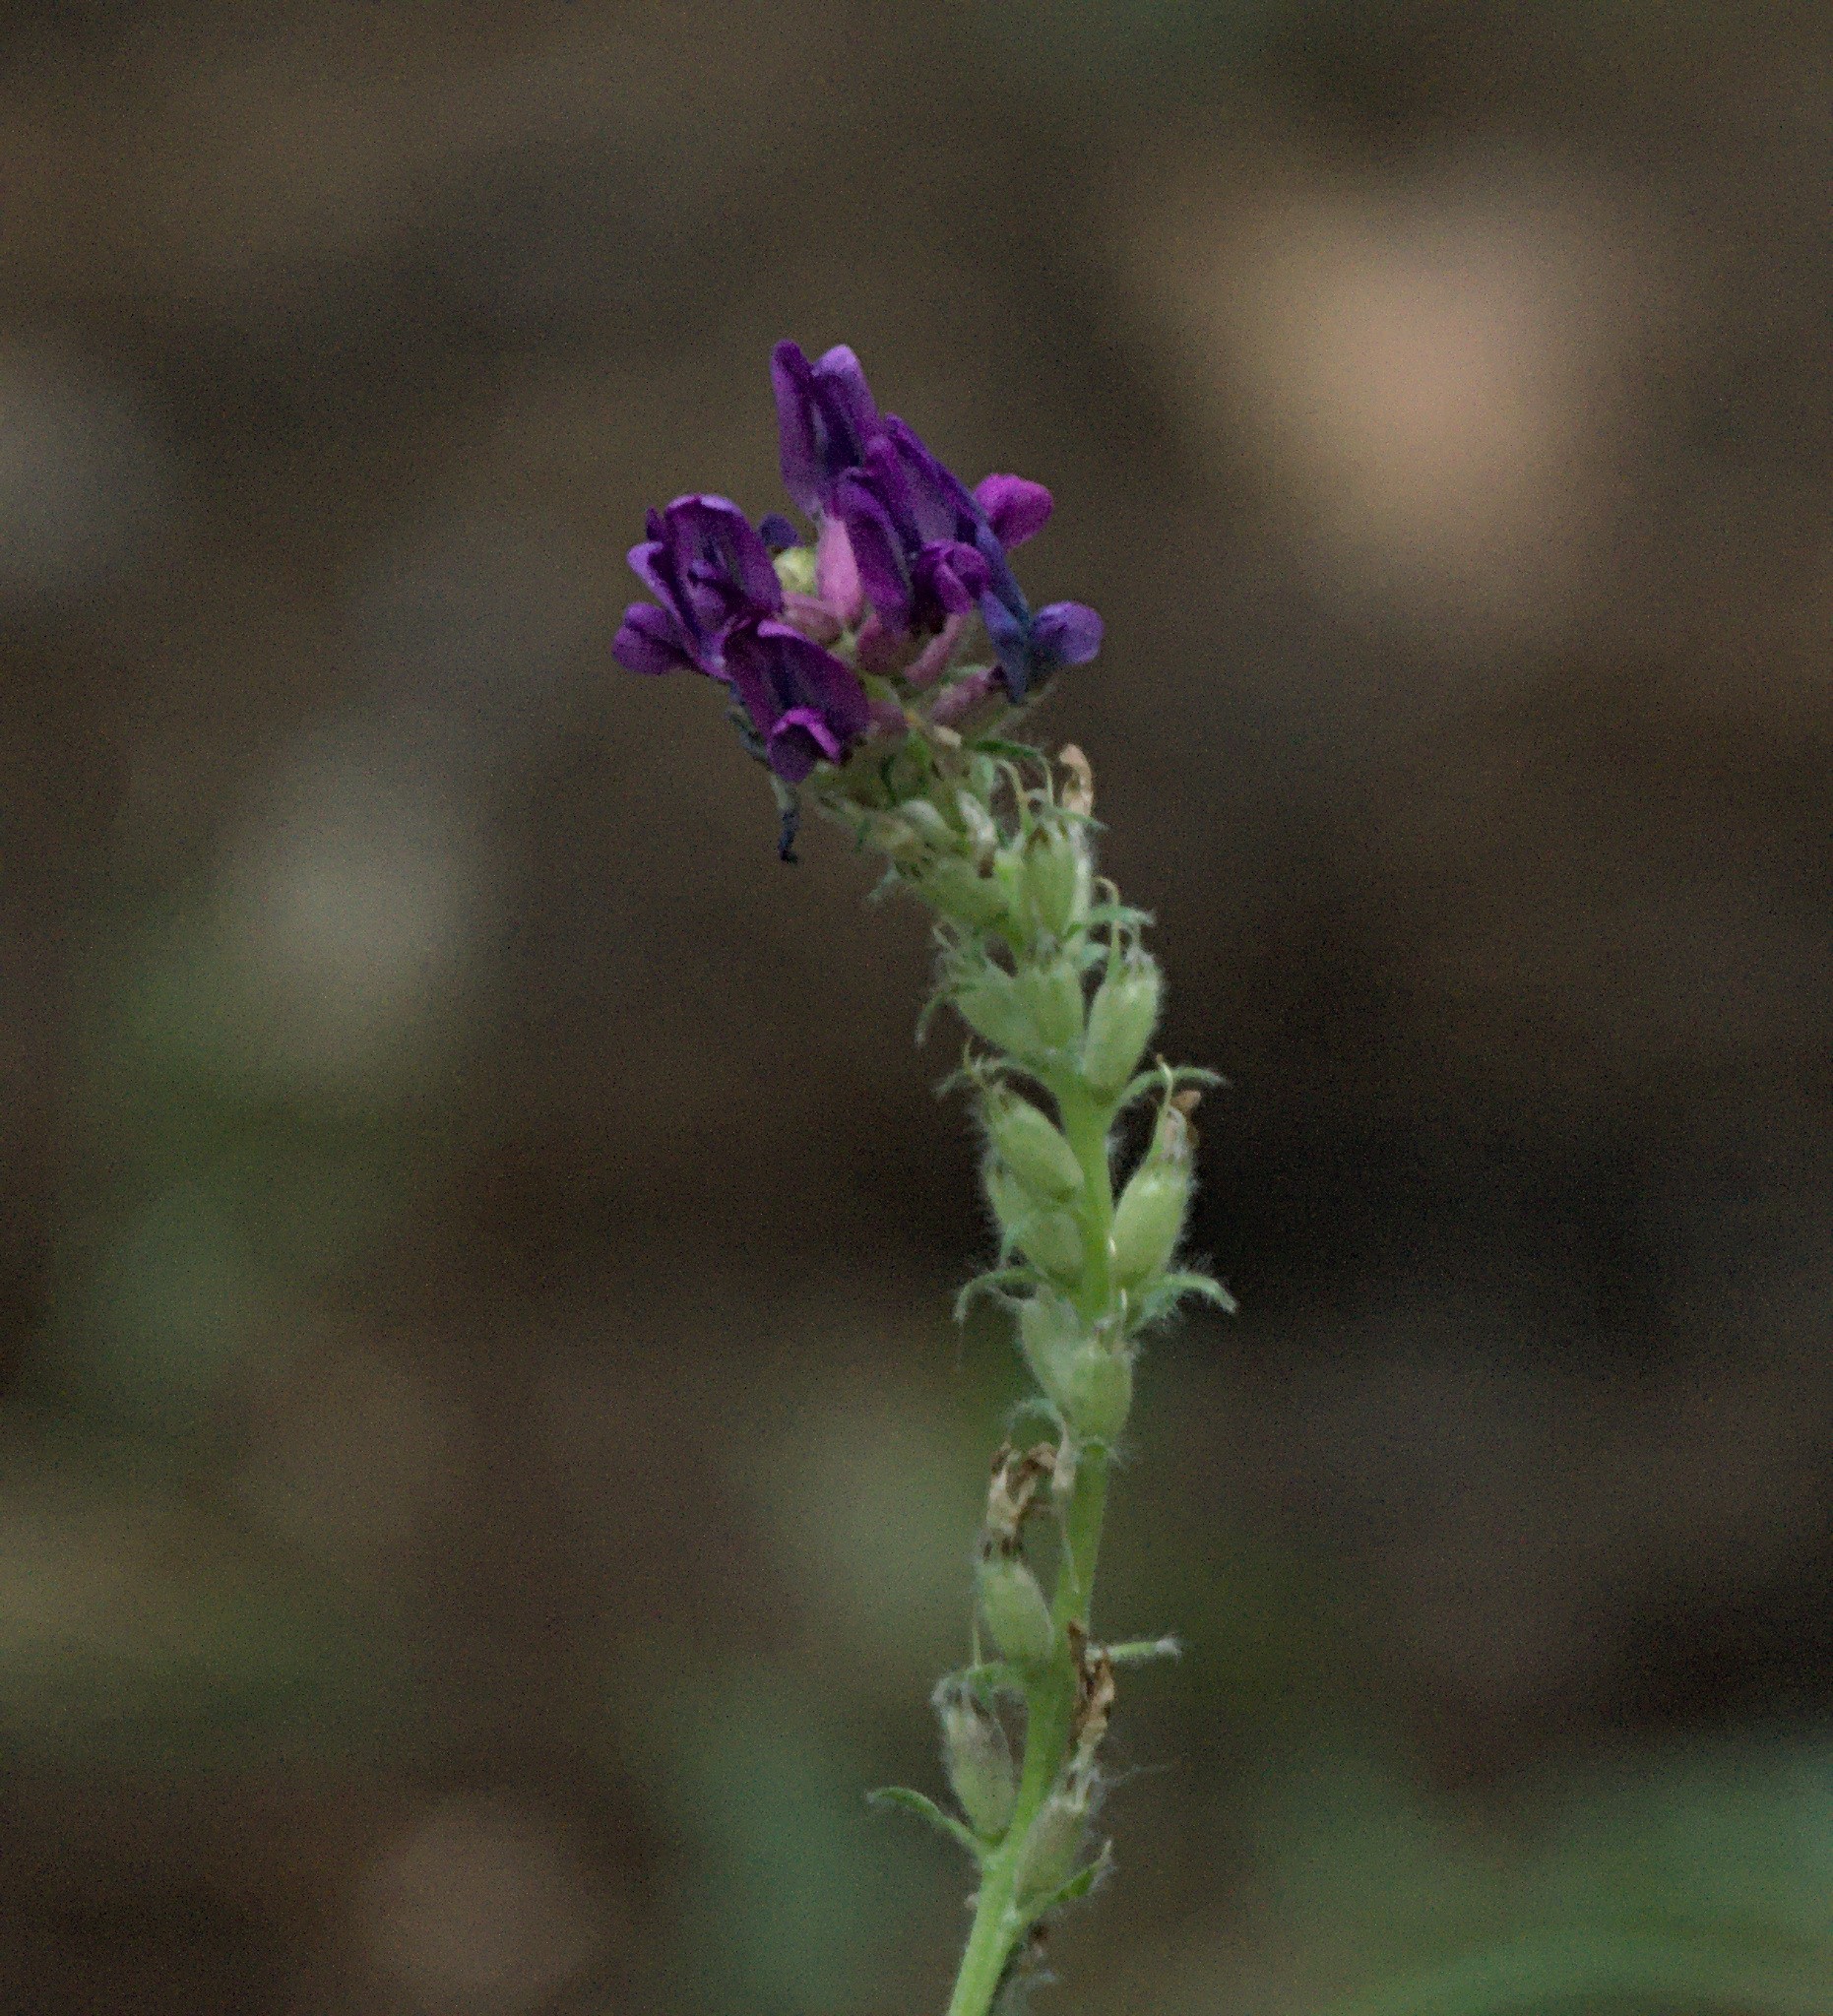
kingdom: Plantae
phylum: Tracheophyta
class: Magnoliopsida
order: Fabales
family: Fabaceae
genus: Oxytropis
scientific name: Oxytropis campanulata
